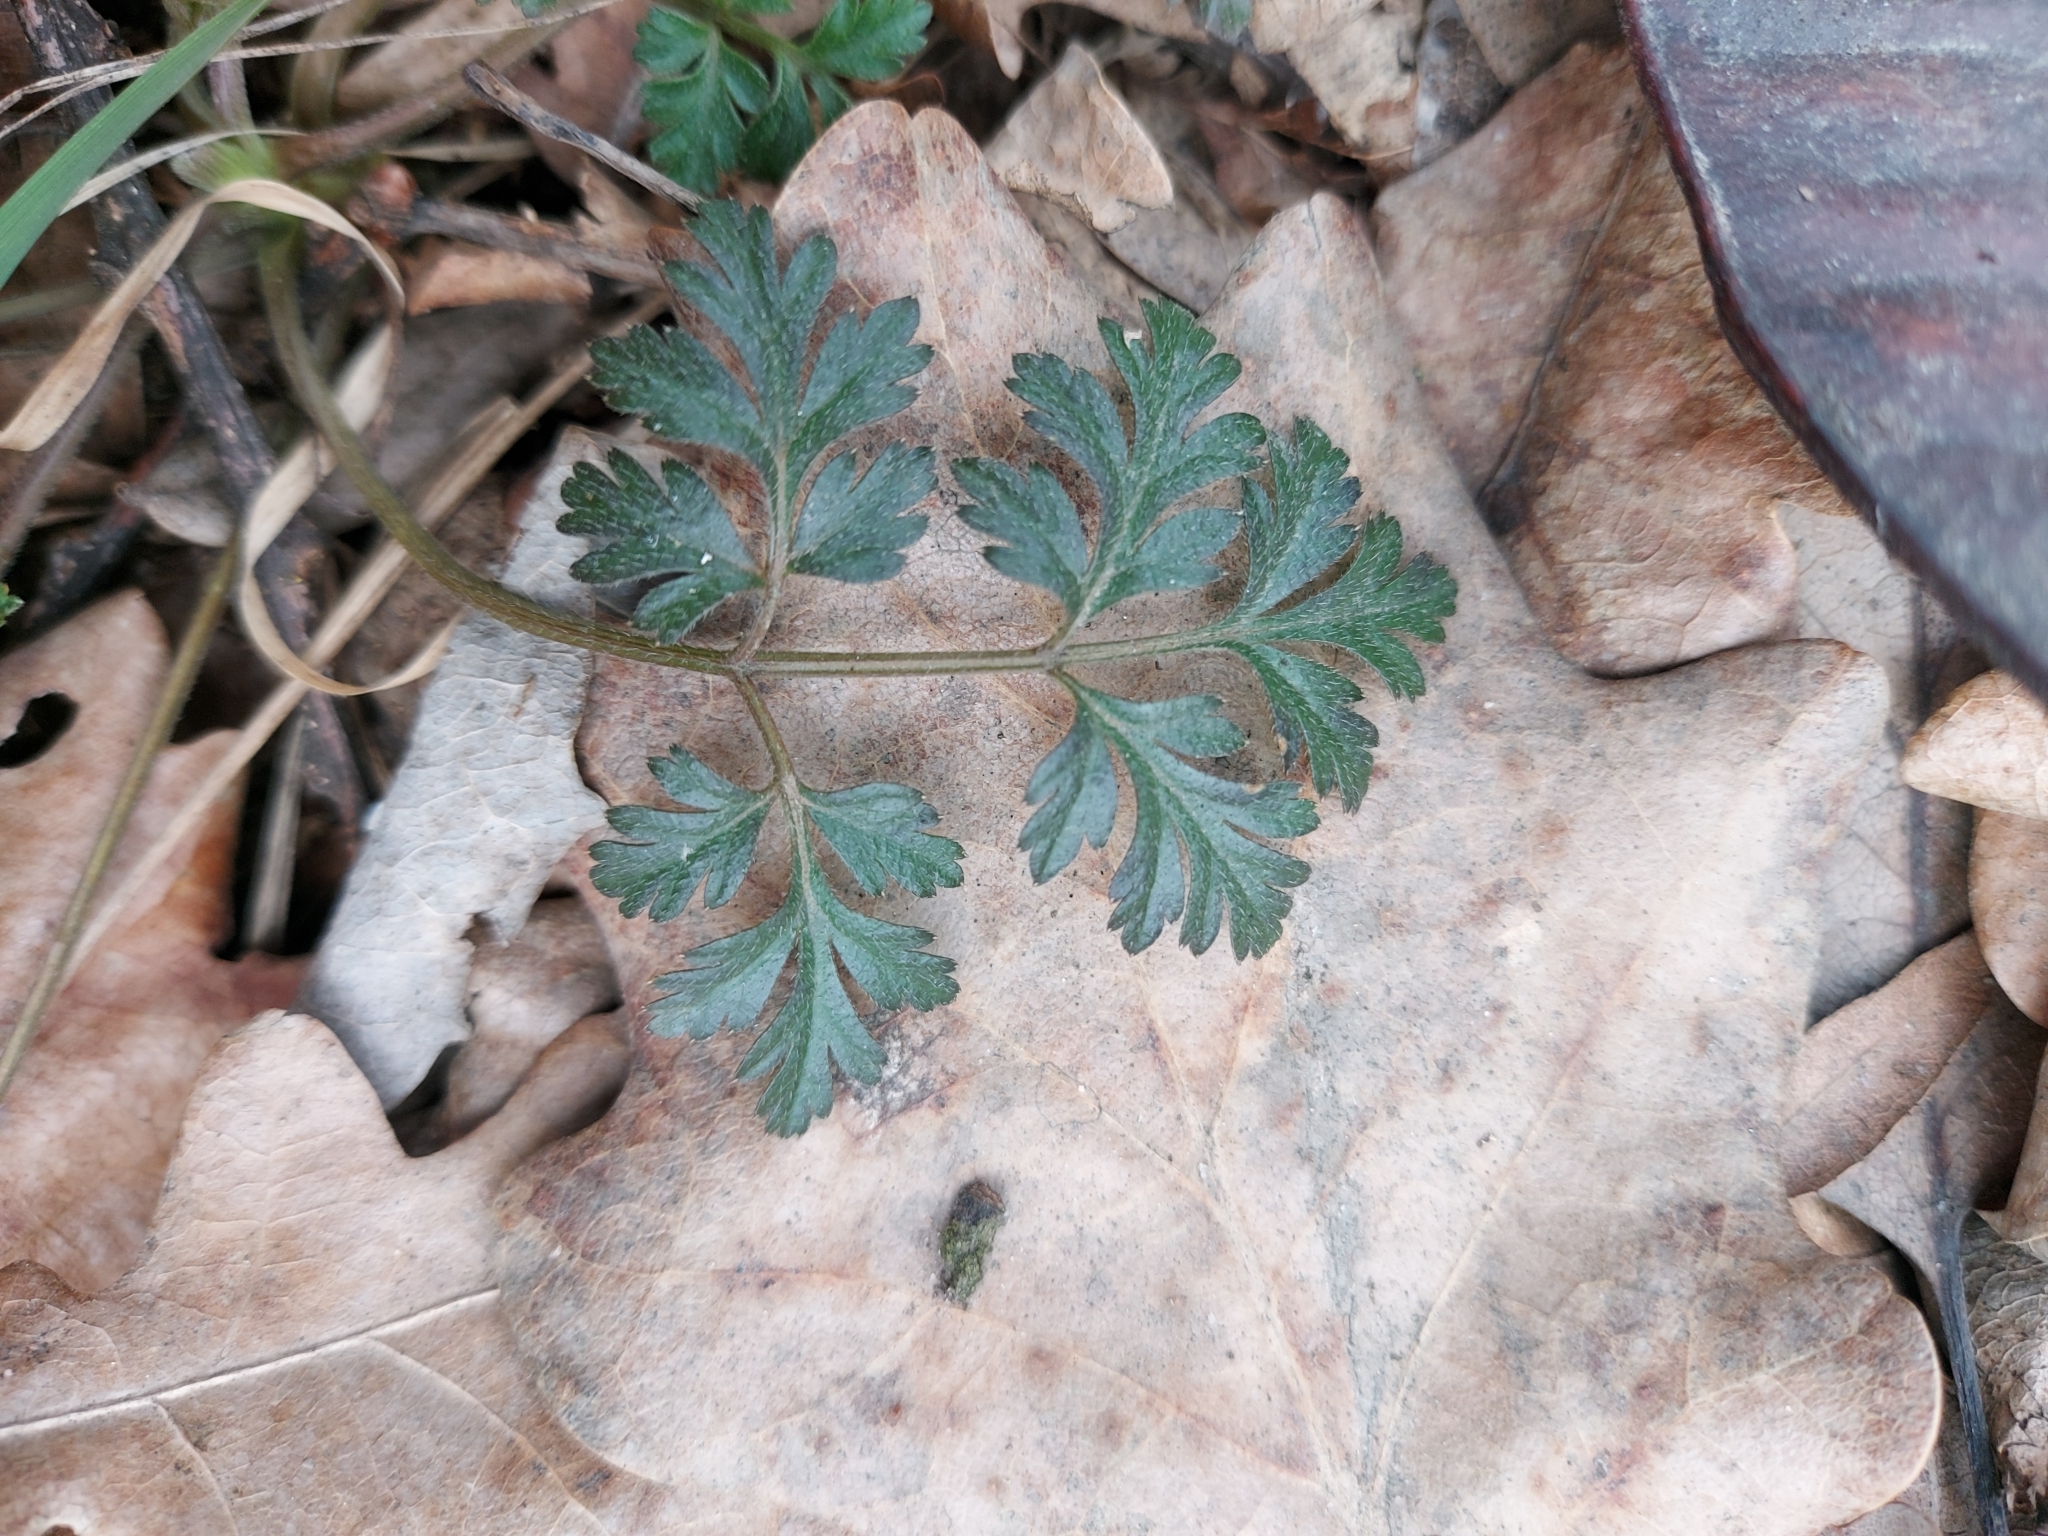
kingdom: Plantae
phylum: Tracheophyta
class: Magnoliopsida
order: Apiales
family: Apiaceae
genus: Chaerophyllum
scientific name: Chaerophyllum temulum
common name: Rough chervil
